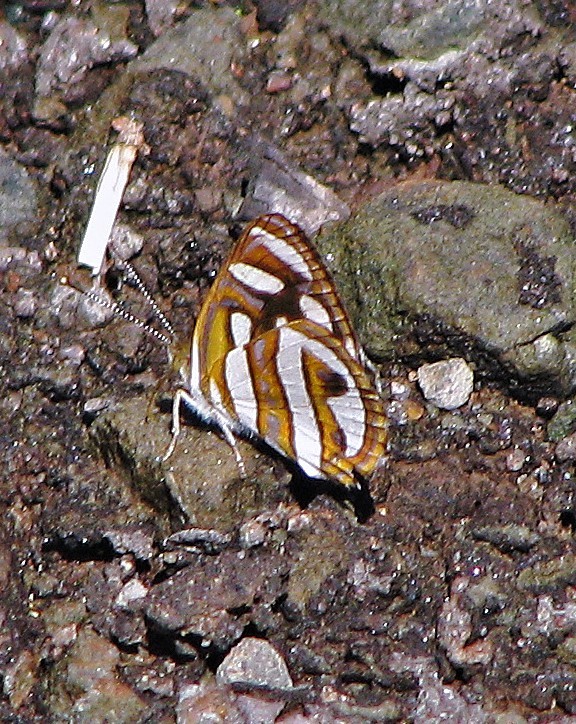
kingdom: Animalia
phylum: Arthropoda
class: Insecta
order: Lepidoptera
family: Nymphalidae
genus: Dynamine
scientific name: Dynamine artemisia
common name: Small-eyed sailor
